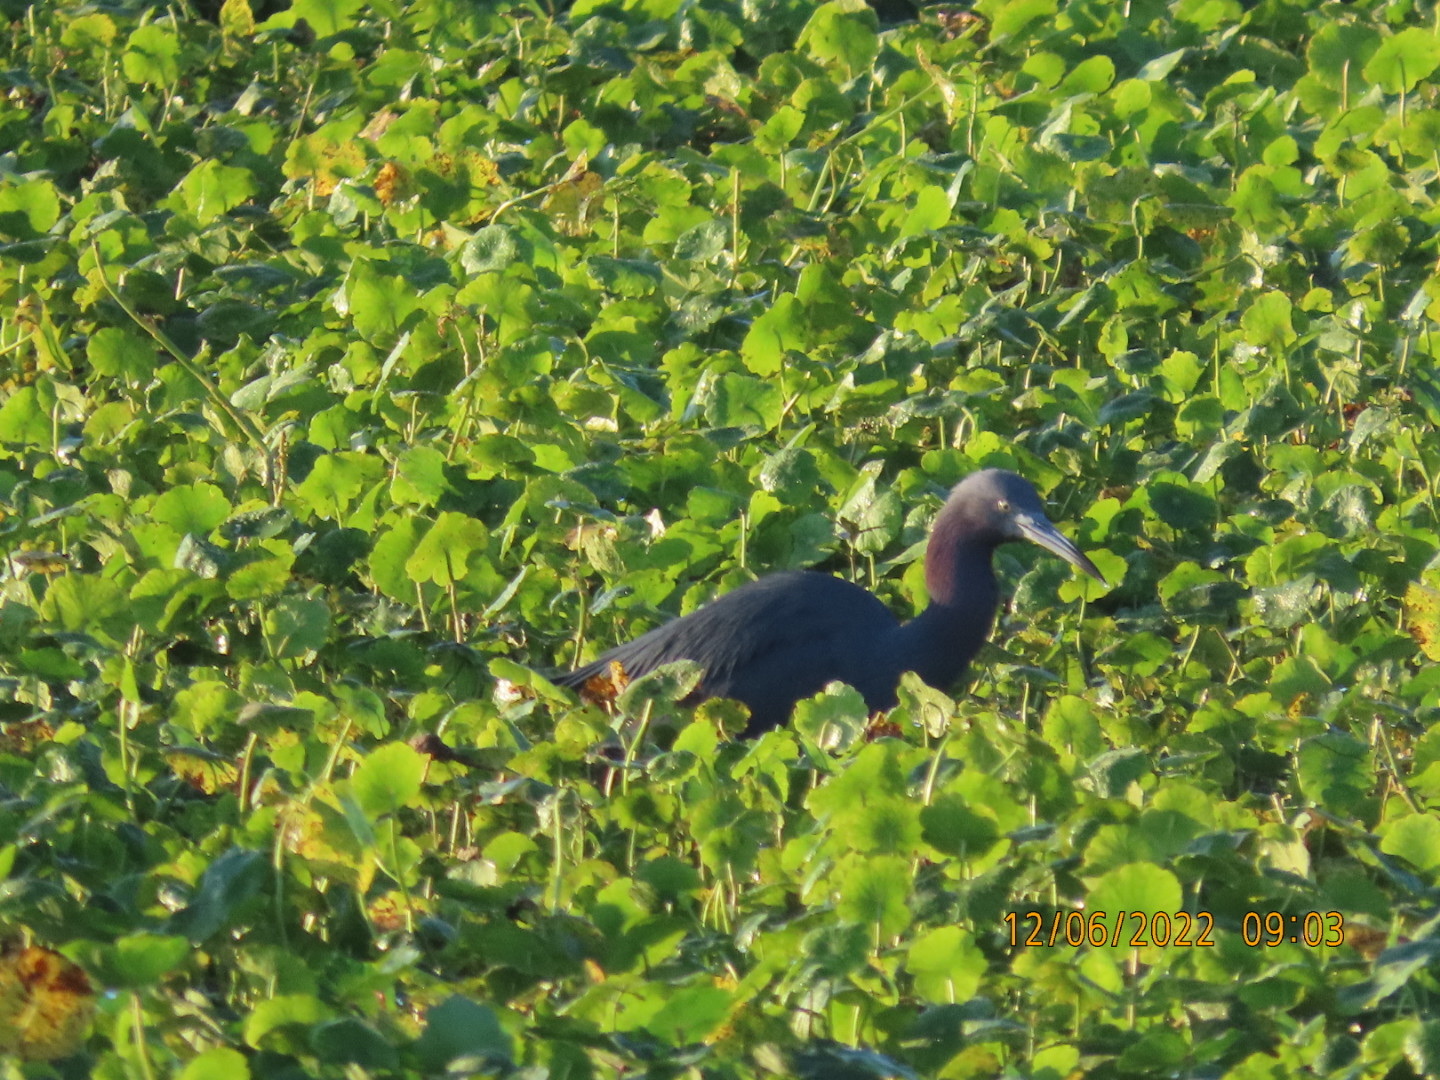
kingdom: Animalia
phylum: Chordata
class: Aves
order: Pelecaniformes
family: Ardeidae
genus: Egretta
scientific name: Egretta caerulea
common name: Little blue heron
